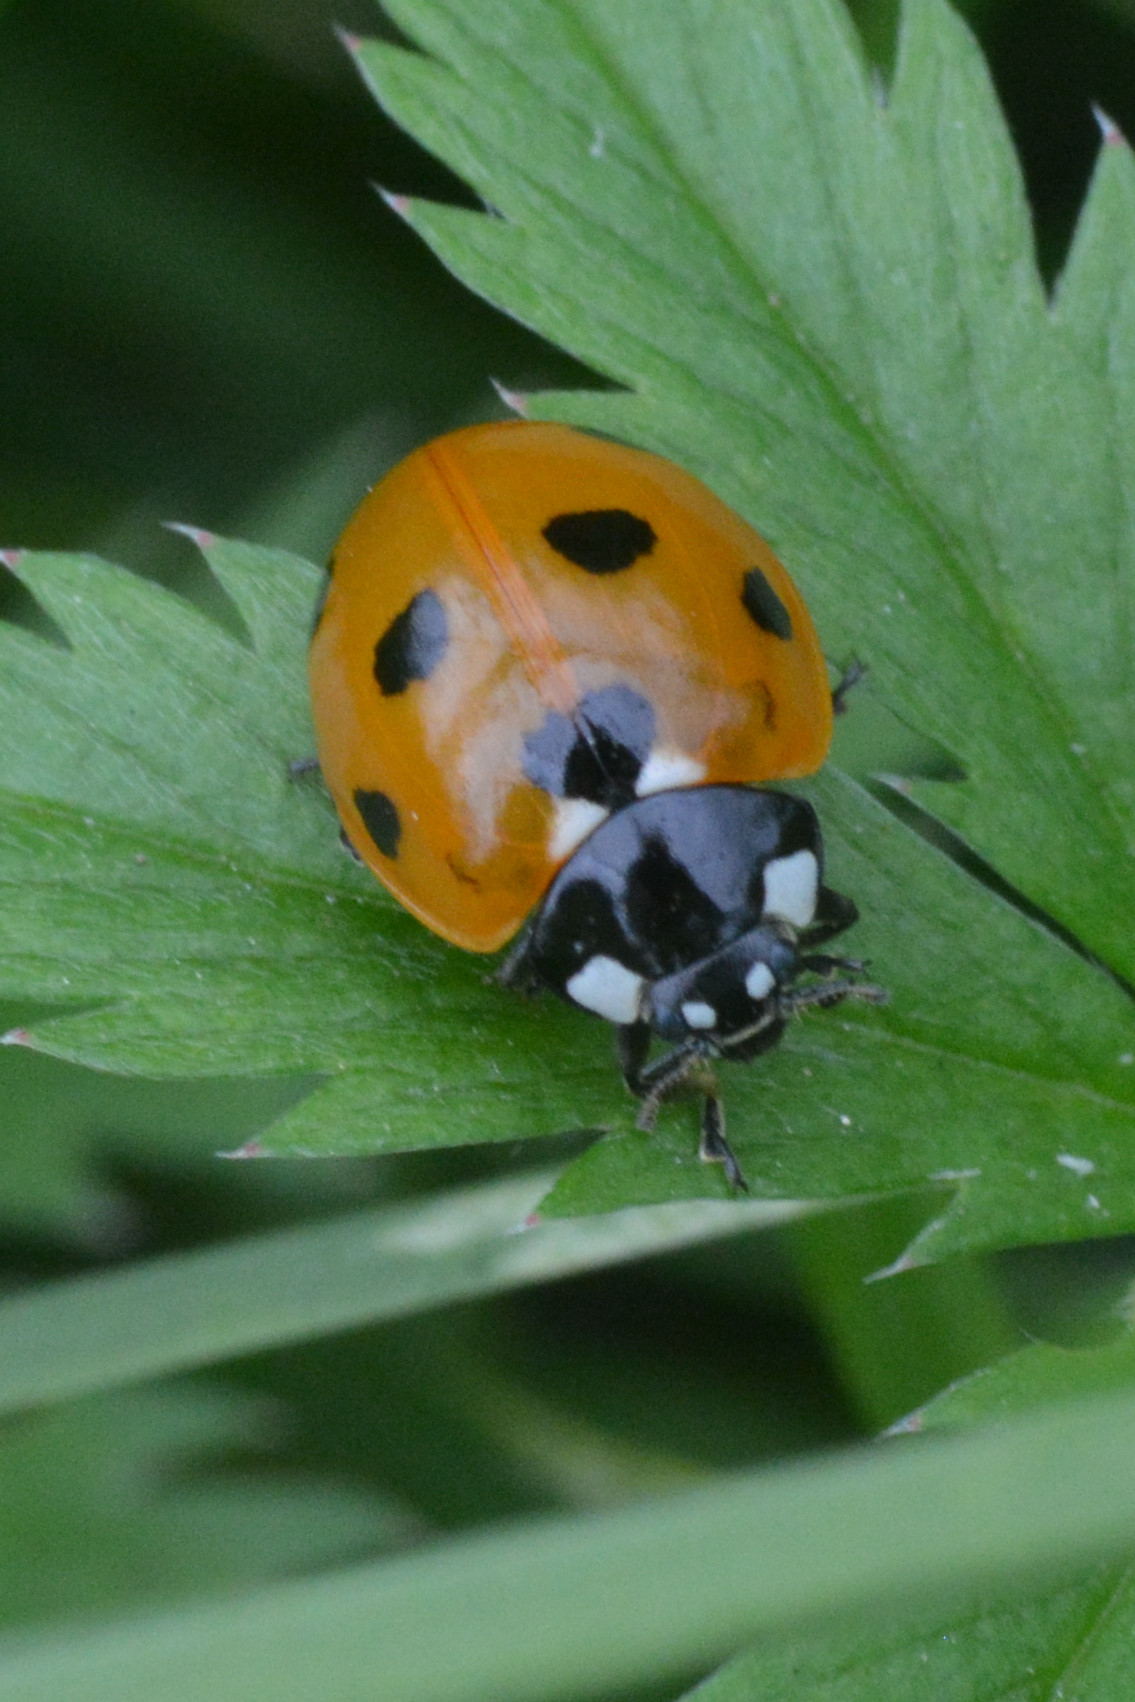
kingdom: Animalia
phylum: Arthropoda
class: Insecta
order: Coleoptera
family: Coccinellidae
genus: Coccinella
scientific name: Coccinella septempunctata
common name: Sevenspotted lady beetle
